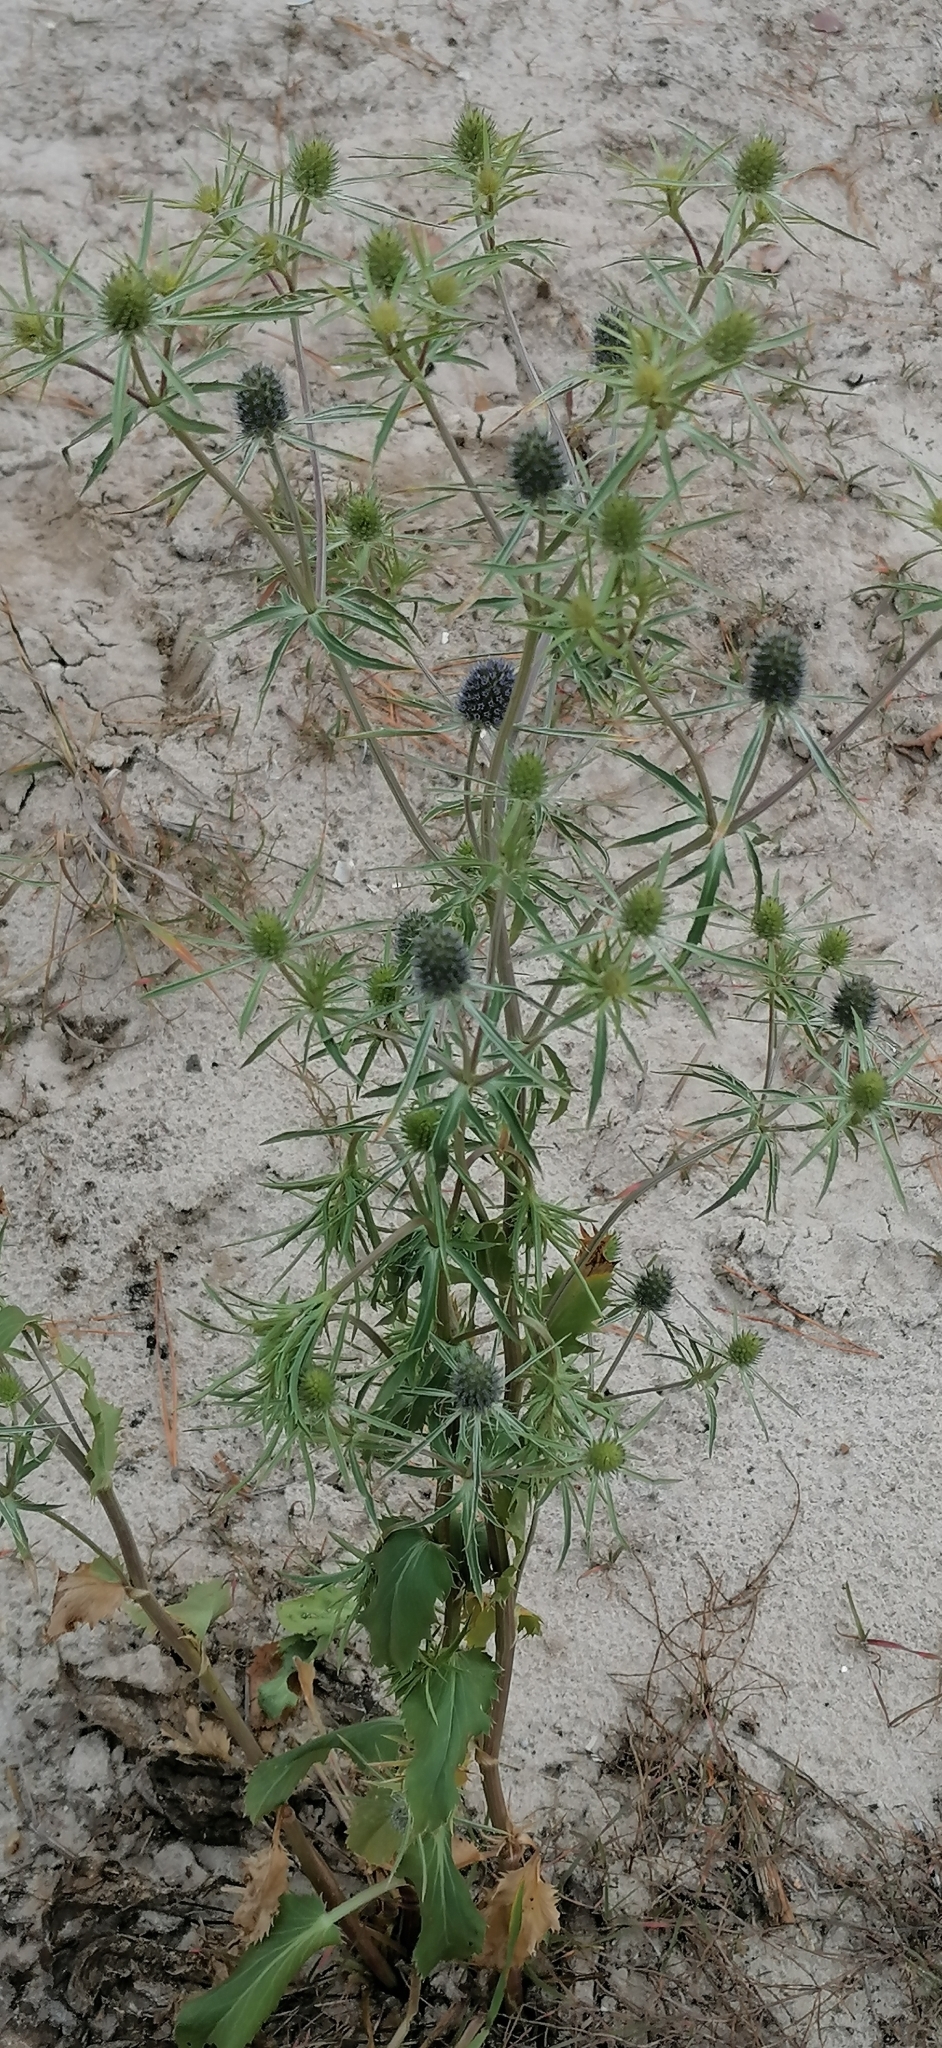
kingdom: Plantae
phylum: Tracheophyta
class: Magnoliopsida
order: Apiales
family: Apiaceae
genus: Eryngium
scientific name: Eryngium planum
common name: Blue eryngo
